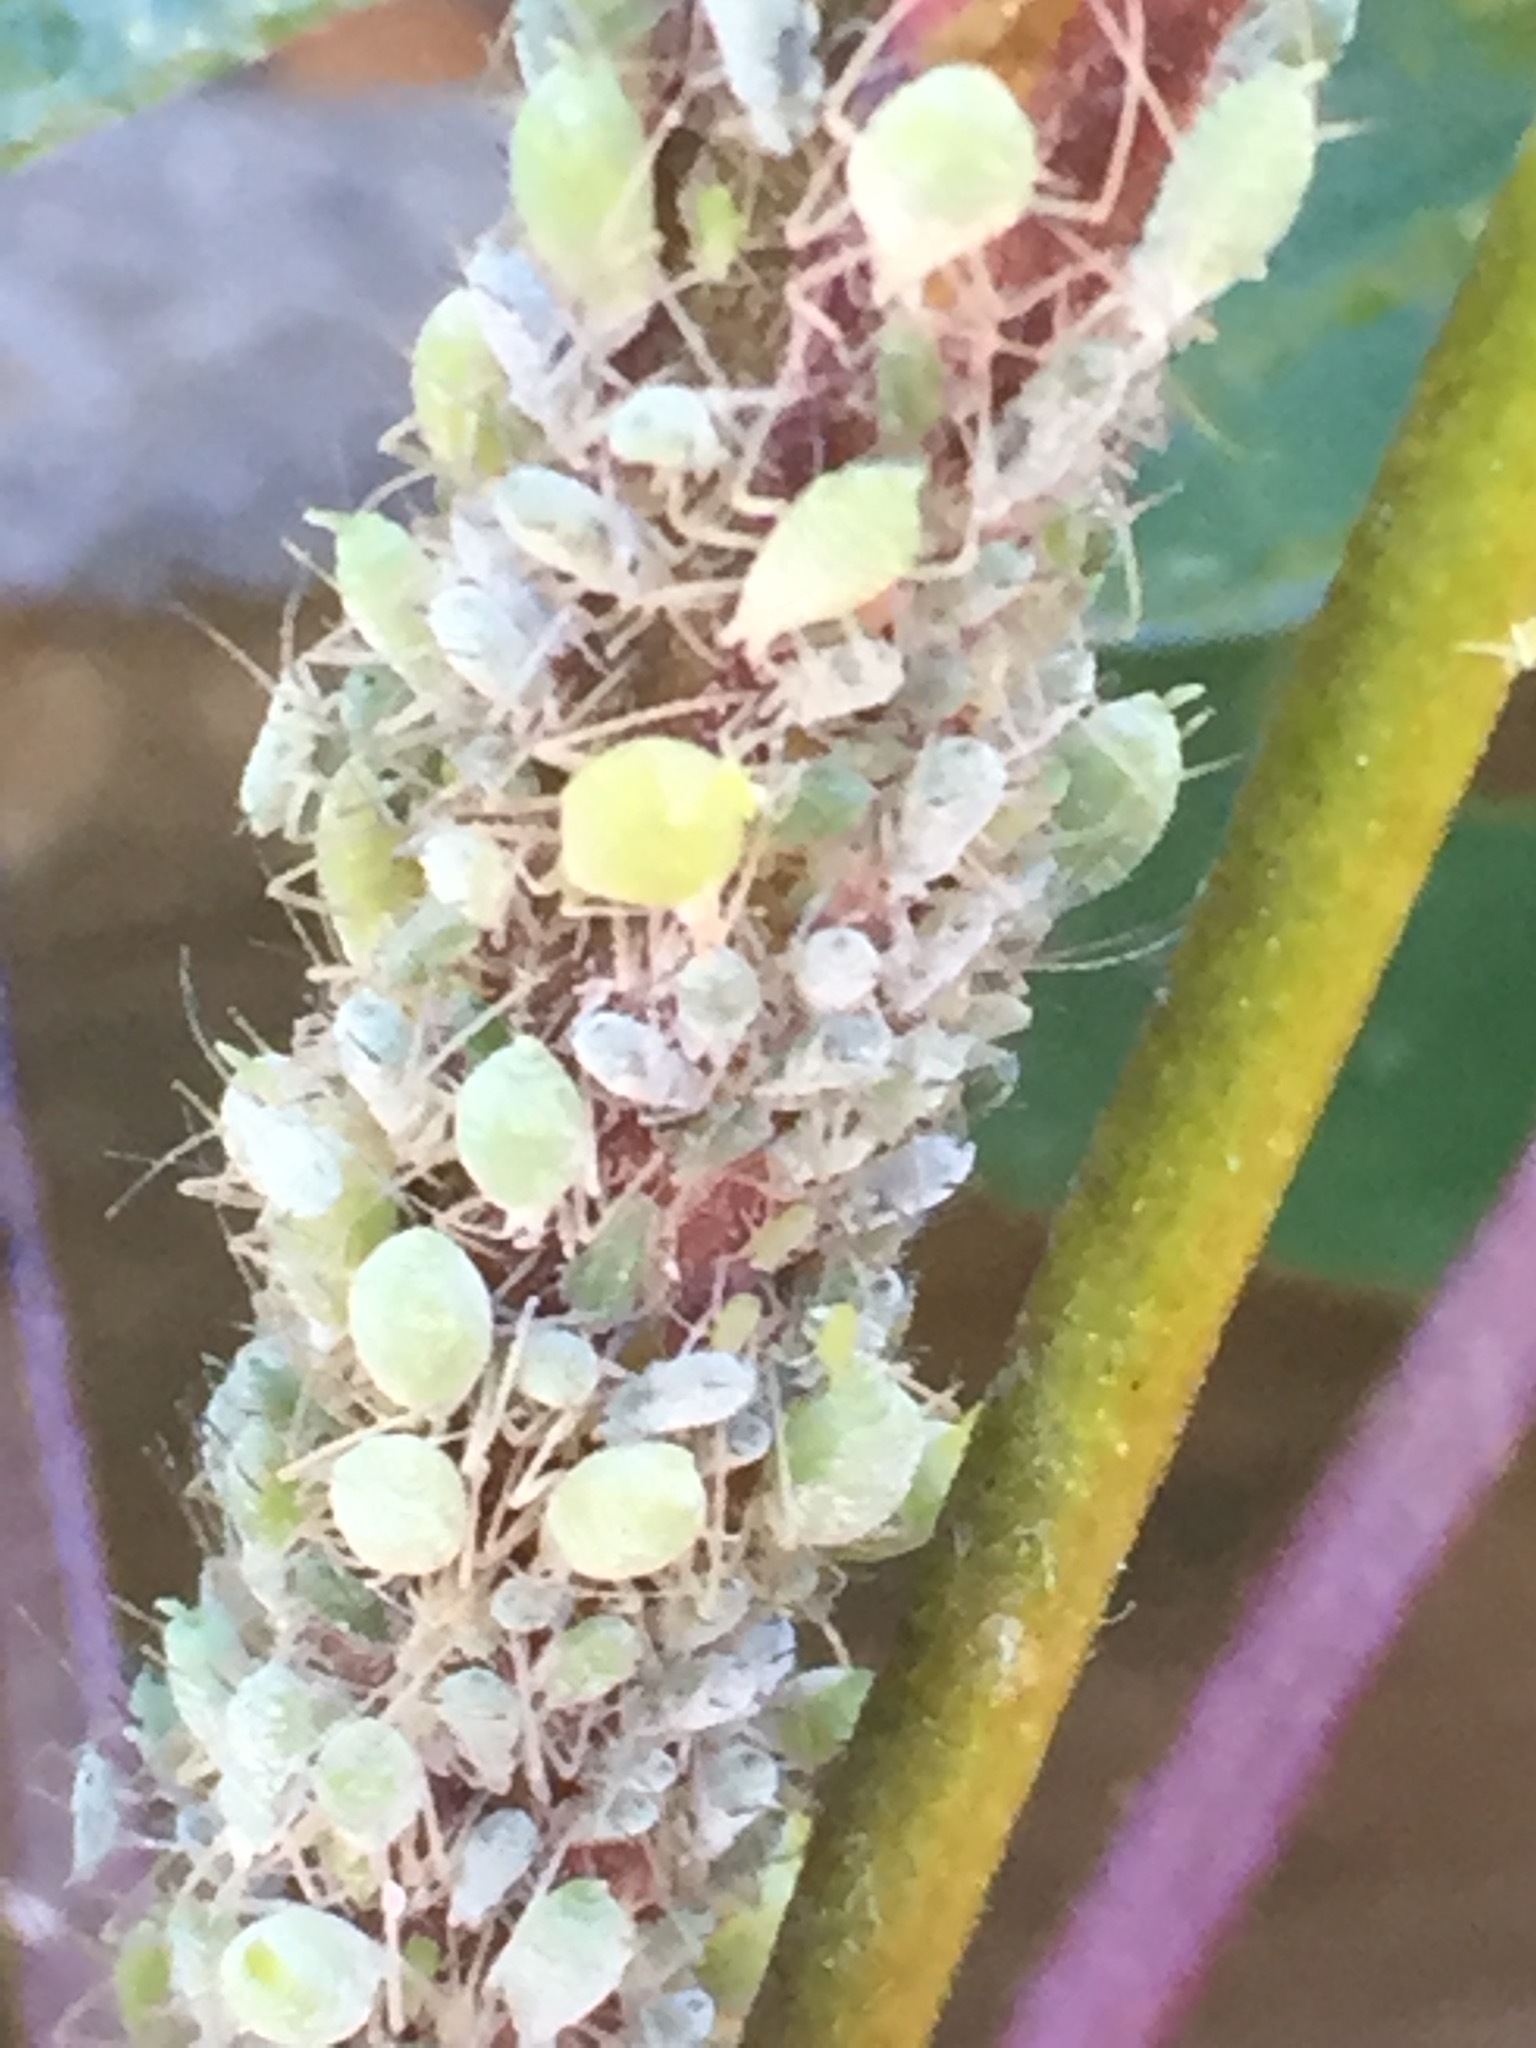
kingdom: Animalia
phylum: Arthropoda
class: Insecta
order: Hemiptera
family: Aphididae
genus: Macrosiphum
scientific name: Macrosiphum albifrons
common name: Lupine aphid
